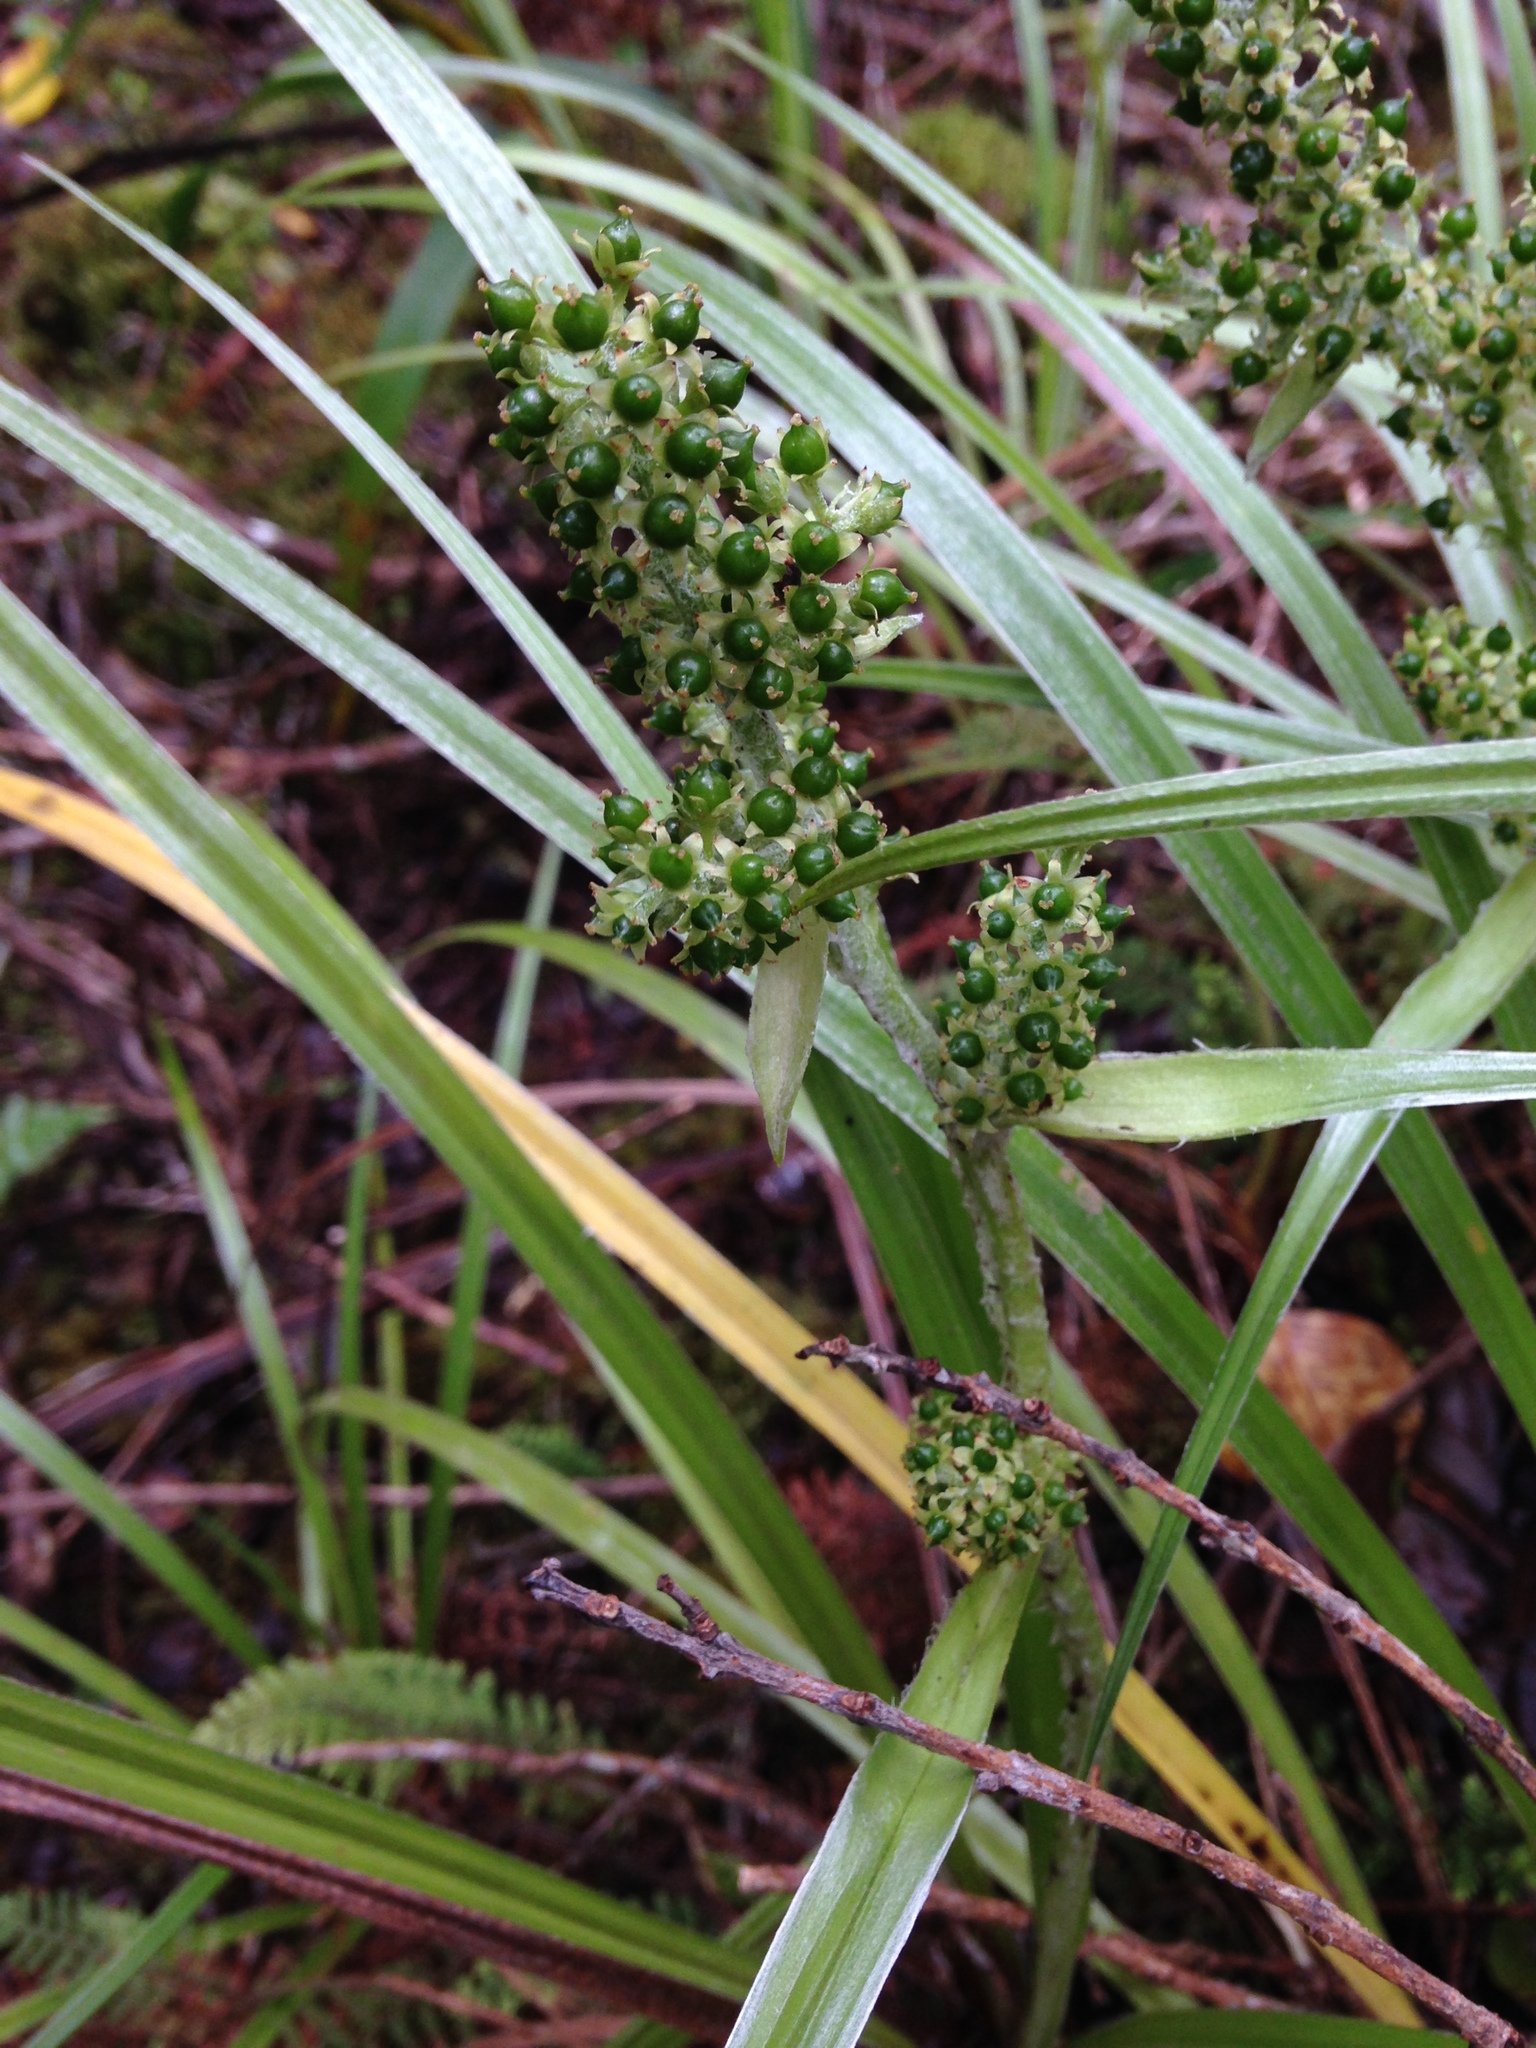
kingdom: Plantae
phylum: Tracheophyta
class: Liliopsida
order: Asparagales
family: Asteliaceae
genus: Astelia
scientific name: Astelia argyrocoma
